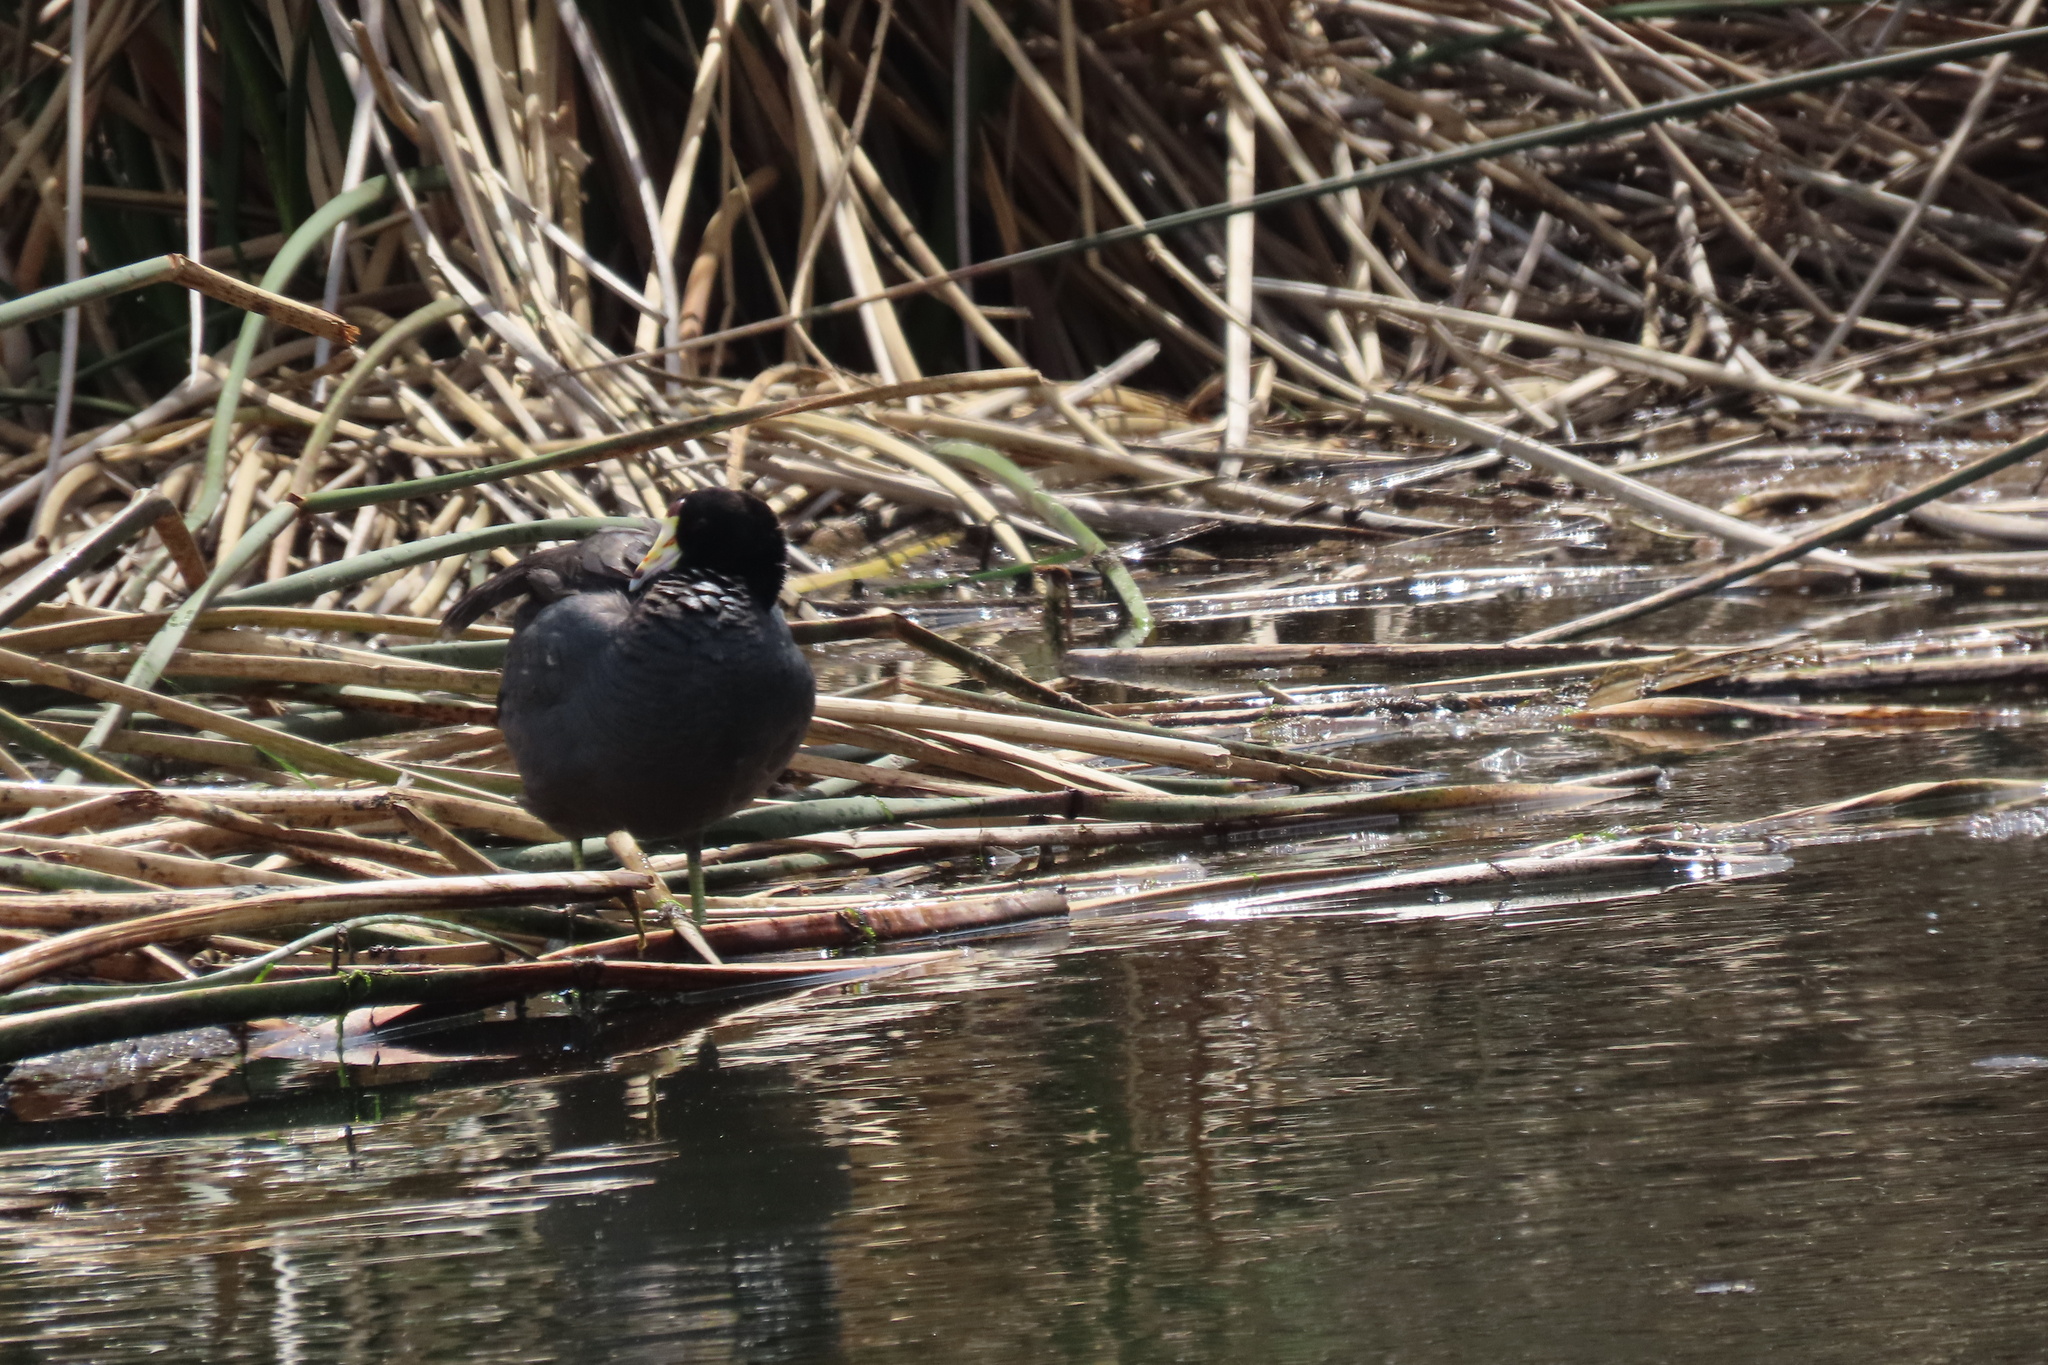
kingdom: Animalia
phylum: Chordata
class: Aves
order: Gruiformes
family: Rallidae
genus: Fulica
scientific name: Fulica americana
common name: American coot
